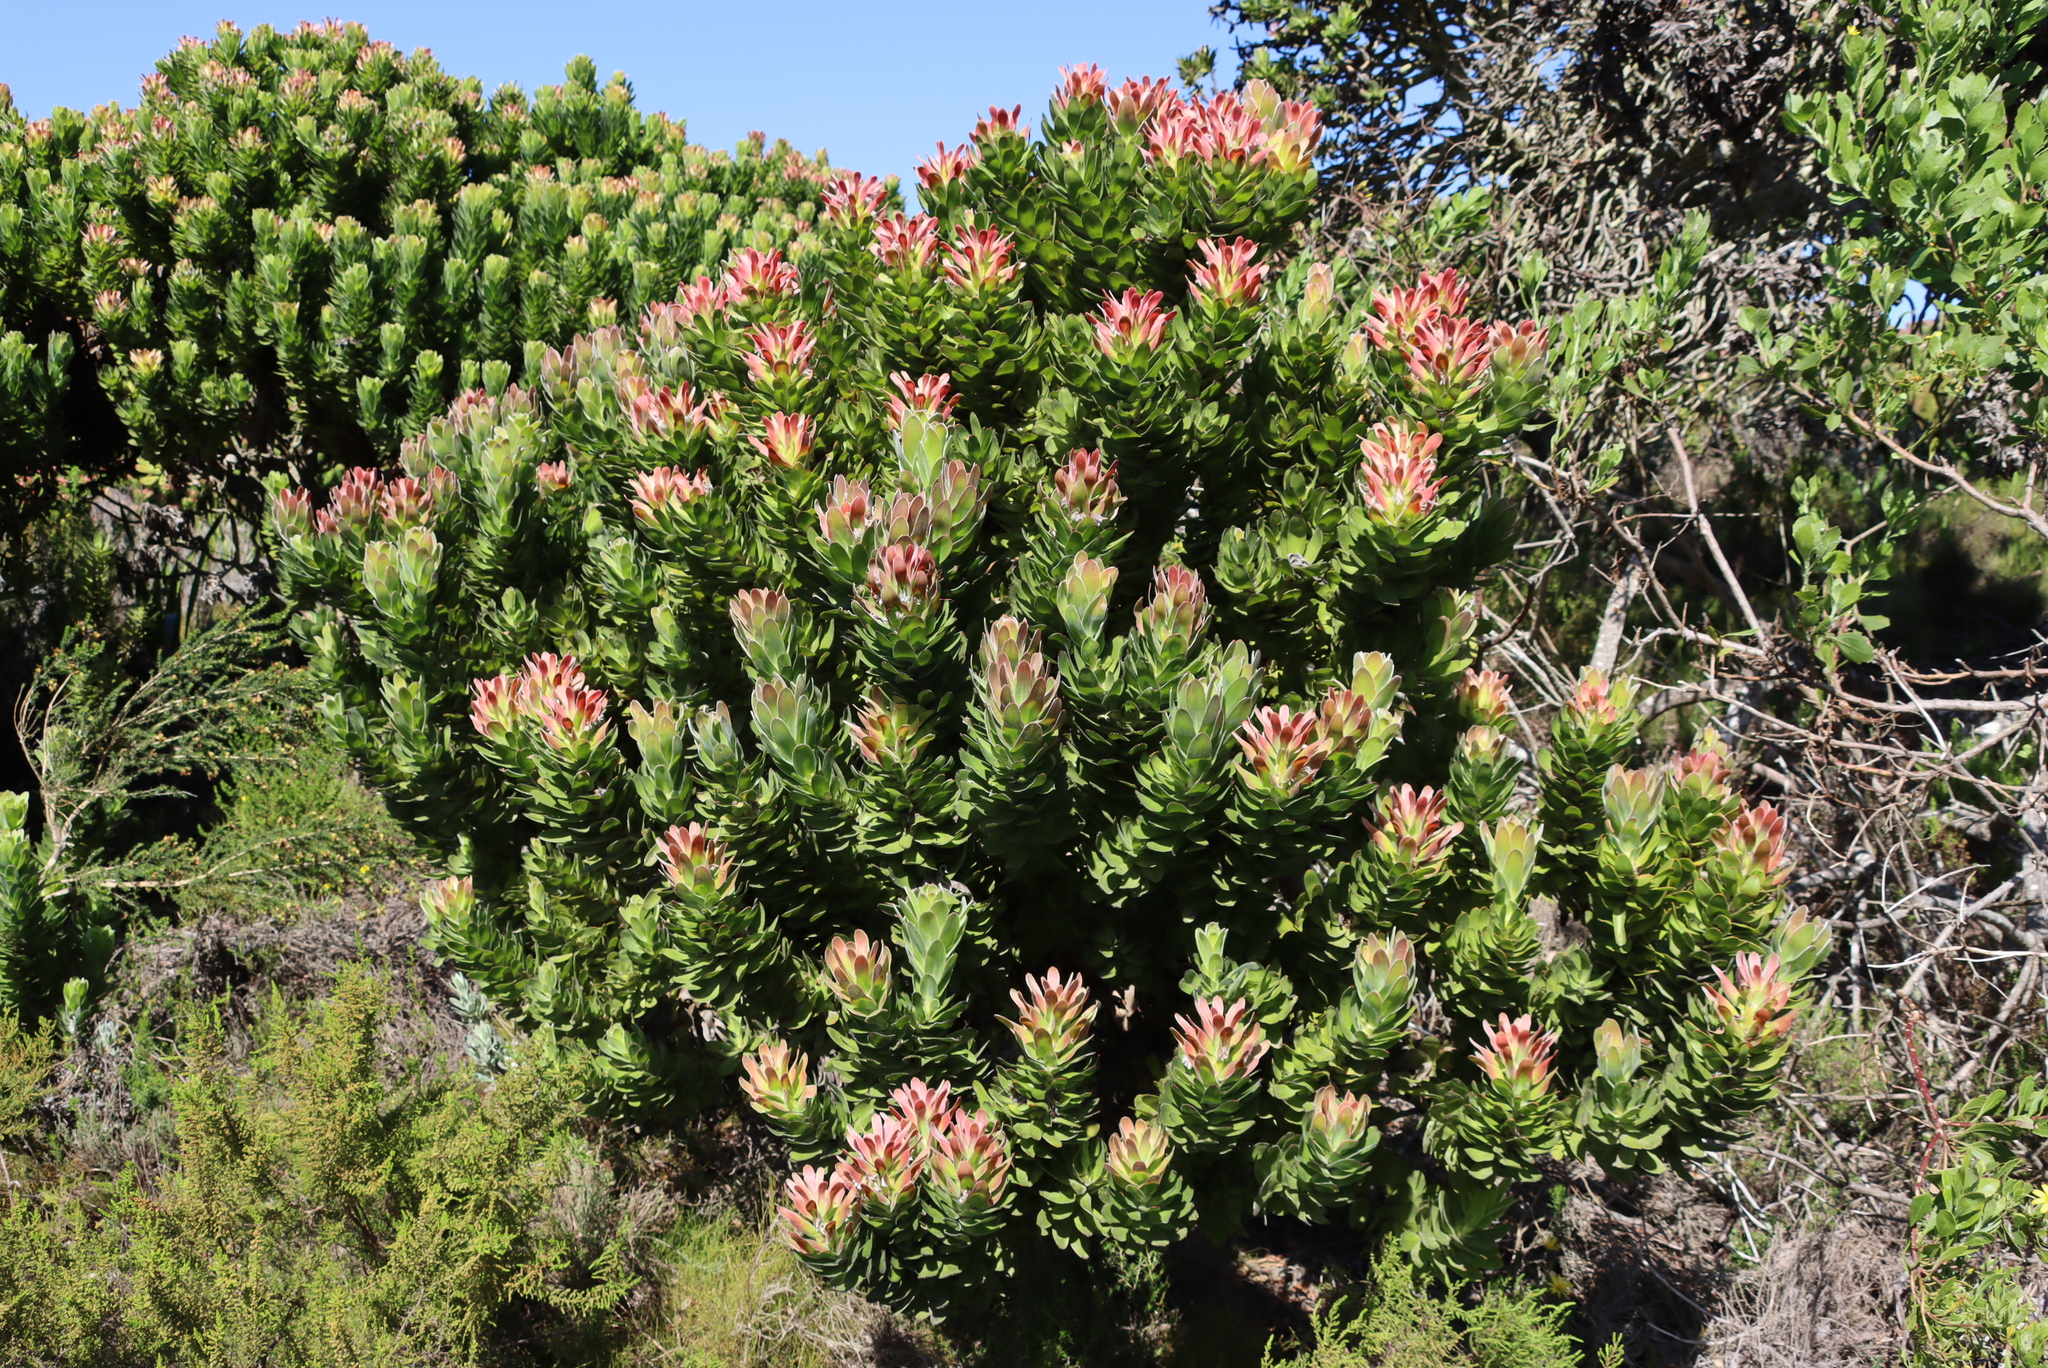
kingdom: Plantae
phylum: Tracheophyta
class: Magnoliopsida
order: Proteales
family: Proteaceae
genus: Mimetes
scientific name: Mimetes fimbriifolius
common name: Fringed bottlebrush
